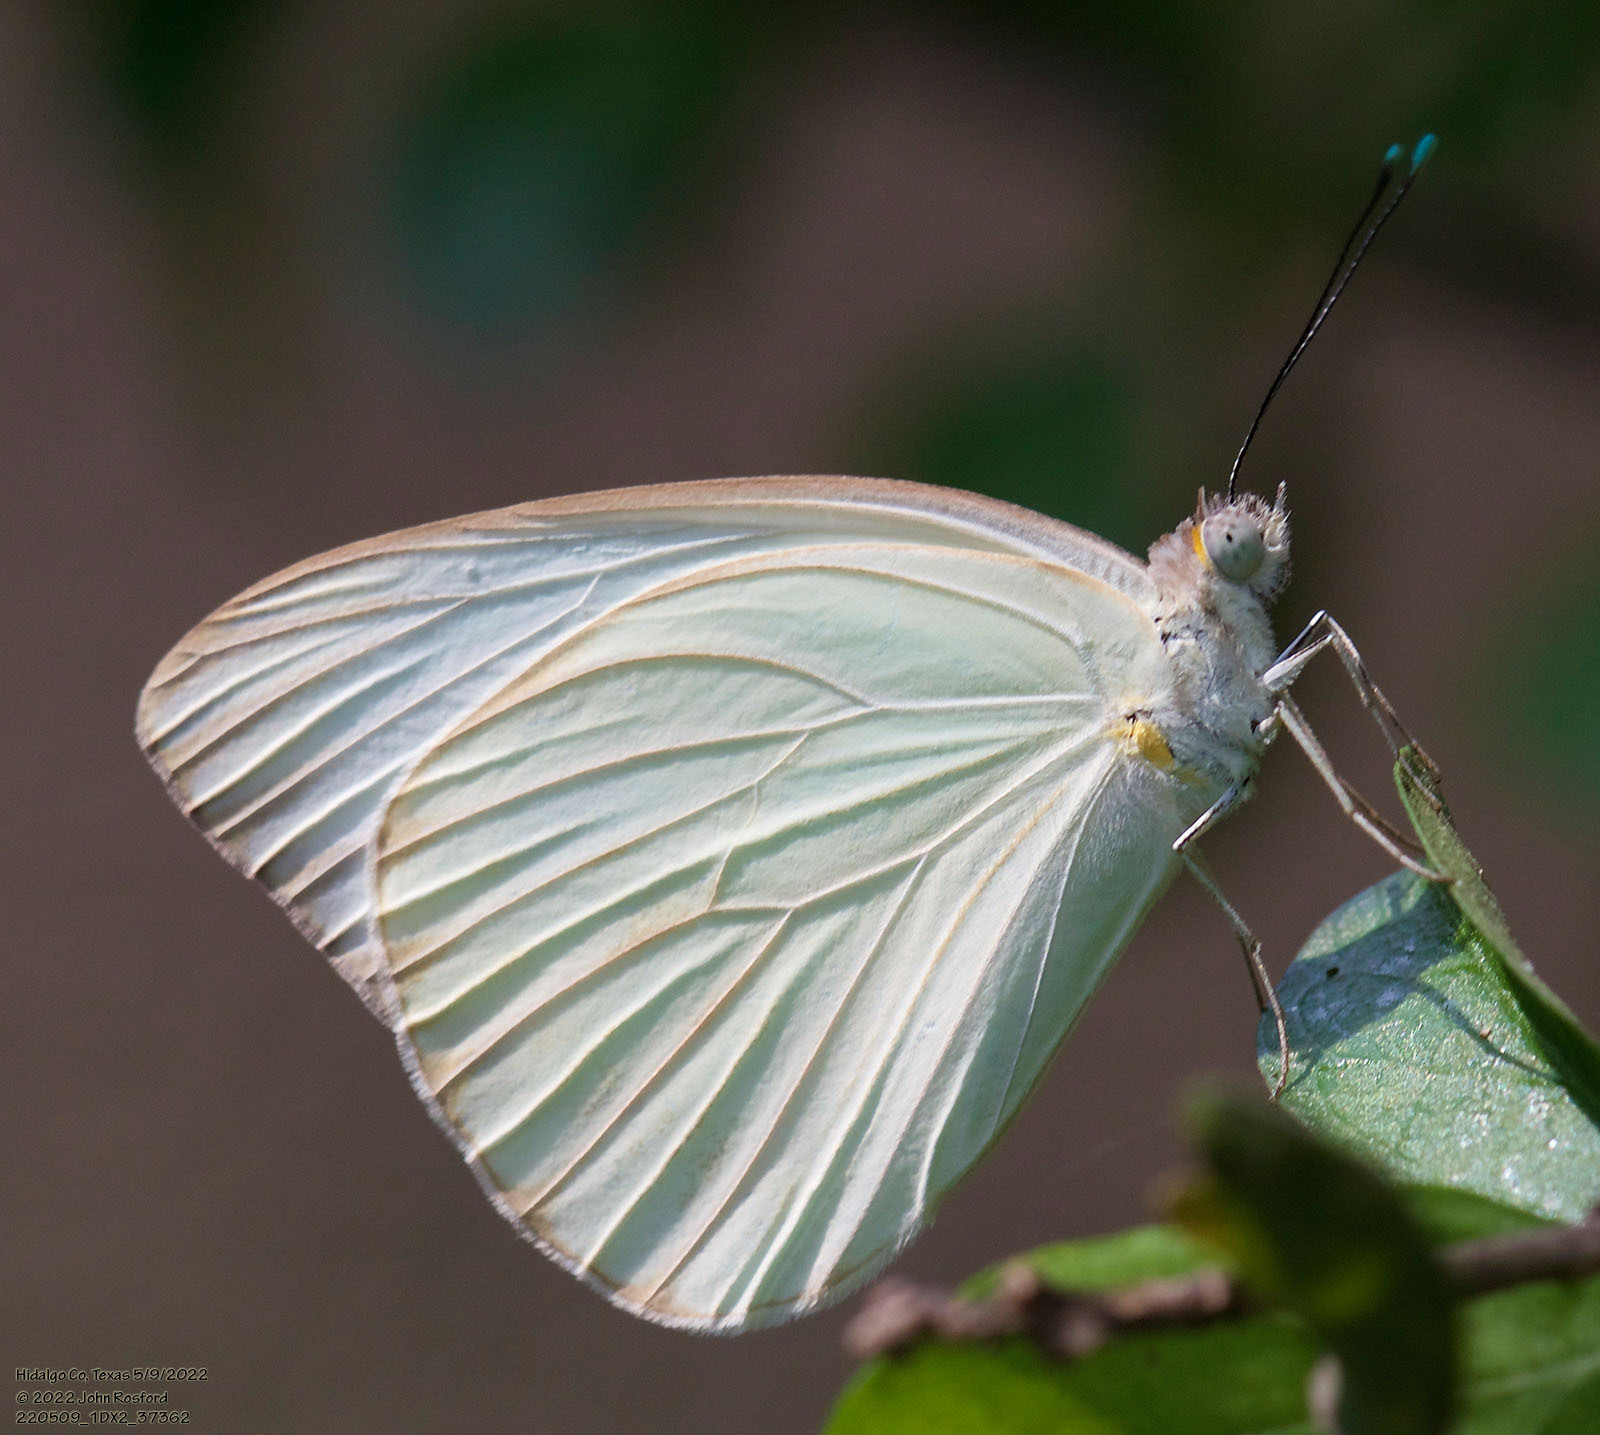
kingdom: Animalia
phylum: Arthropoda
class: Insecta
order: Lepidoptera
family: Pieridae
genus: Ascia
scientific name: Ascia monuste
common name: Great southern white
